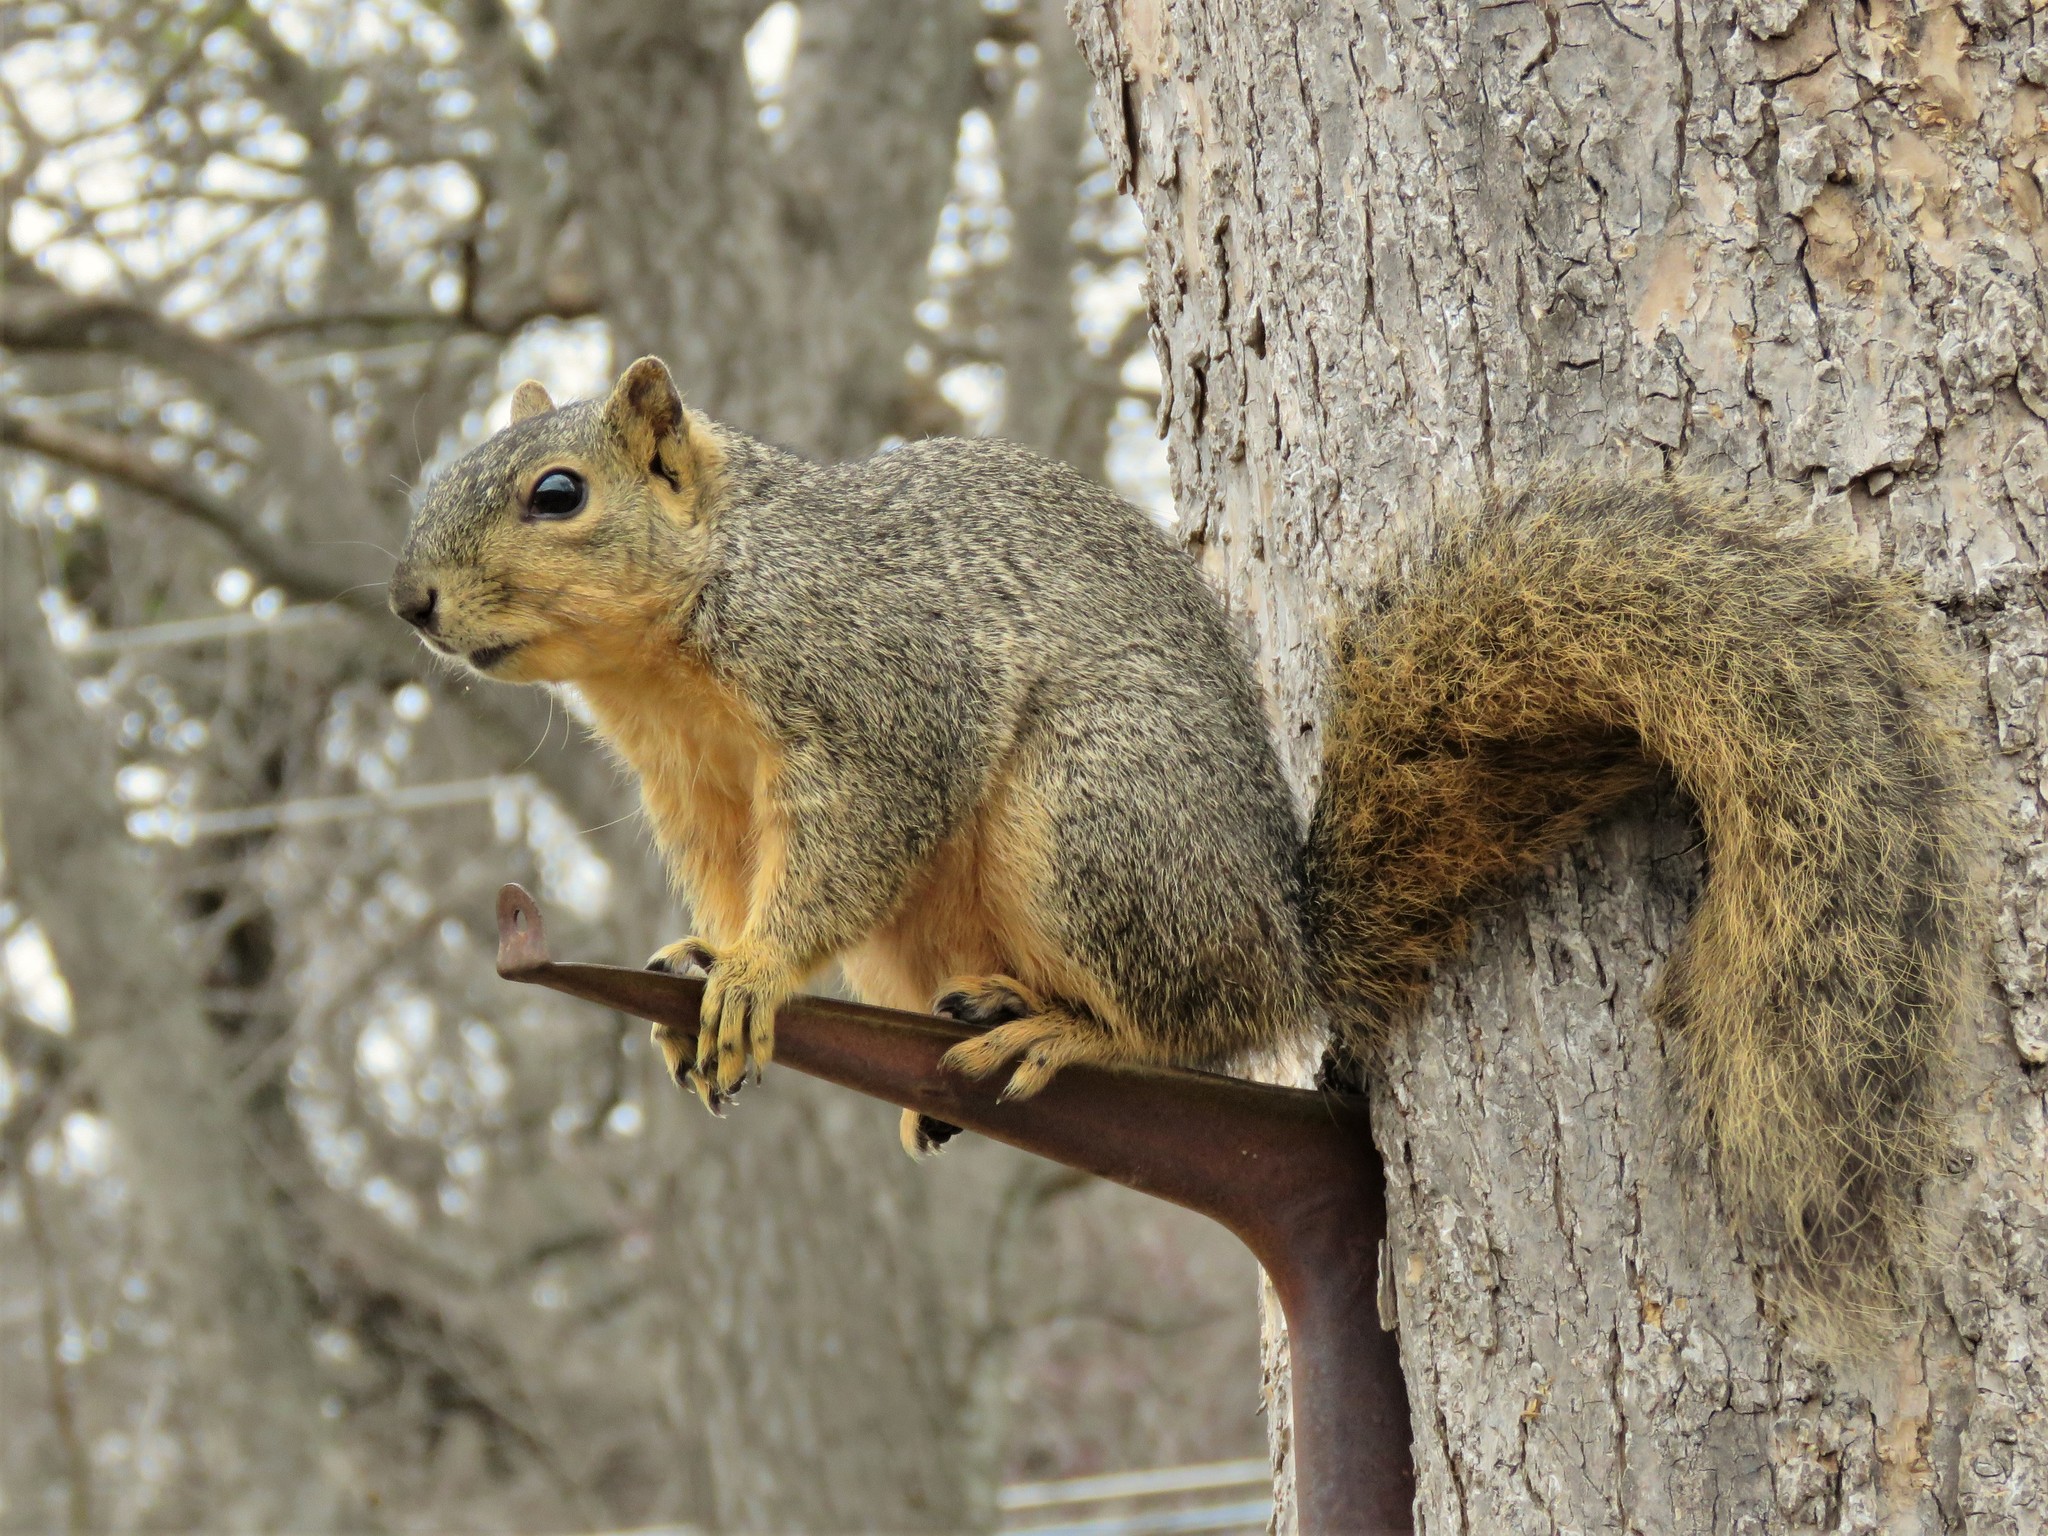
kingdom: Animalia
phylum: Chordata
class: Mammalia
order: Rodentia
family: Sciuridae
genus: Sciurus
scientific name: Sciurus niger
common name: Fox squirrel
